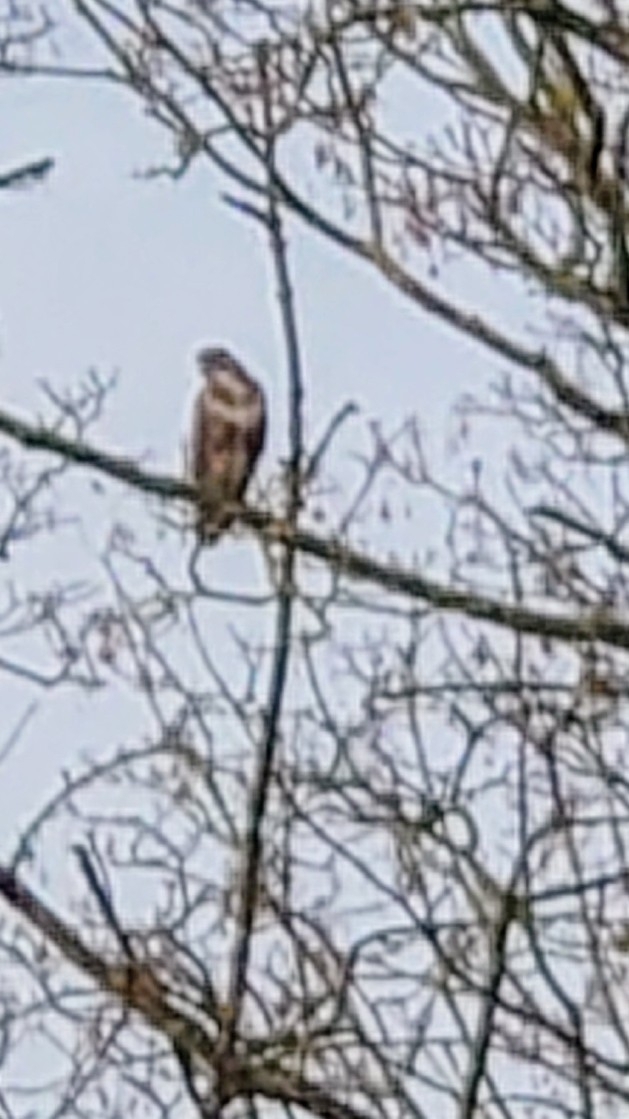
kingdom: Animalia
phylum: Chordata
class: Aves
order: Accipitriformes
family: Accipitridae
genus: Buteo
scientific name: Buteo buteo
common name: Common buzzard
